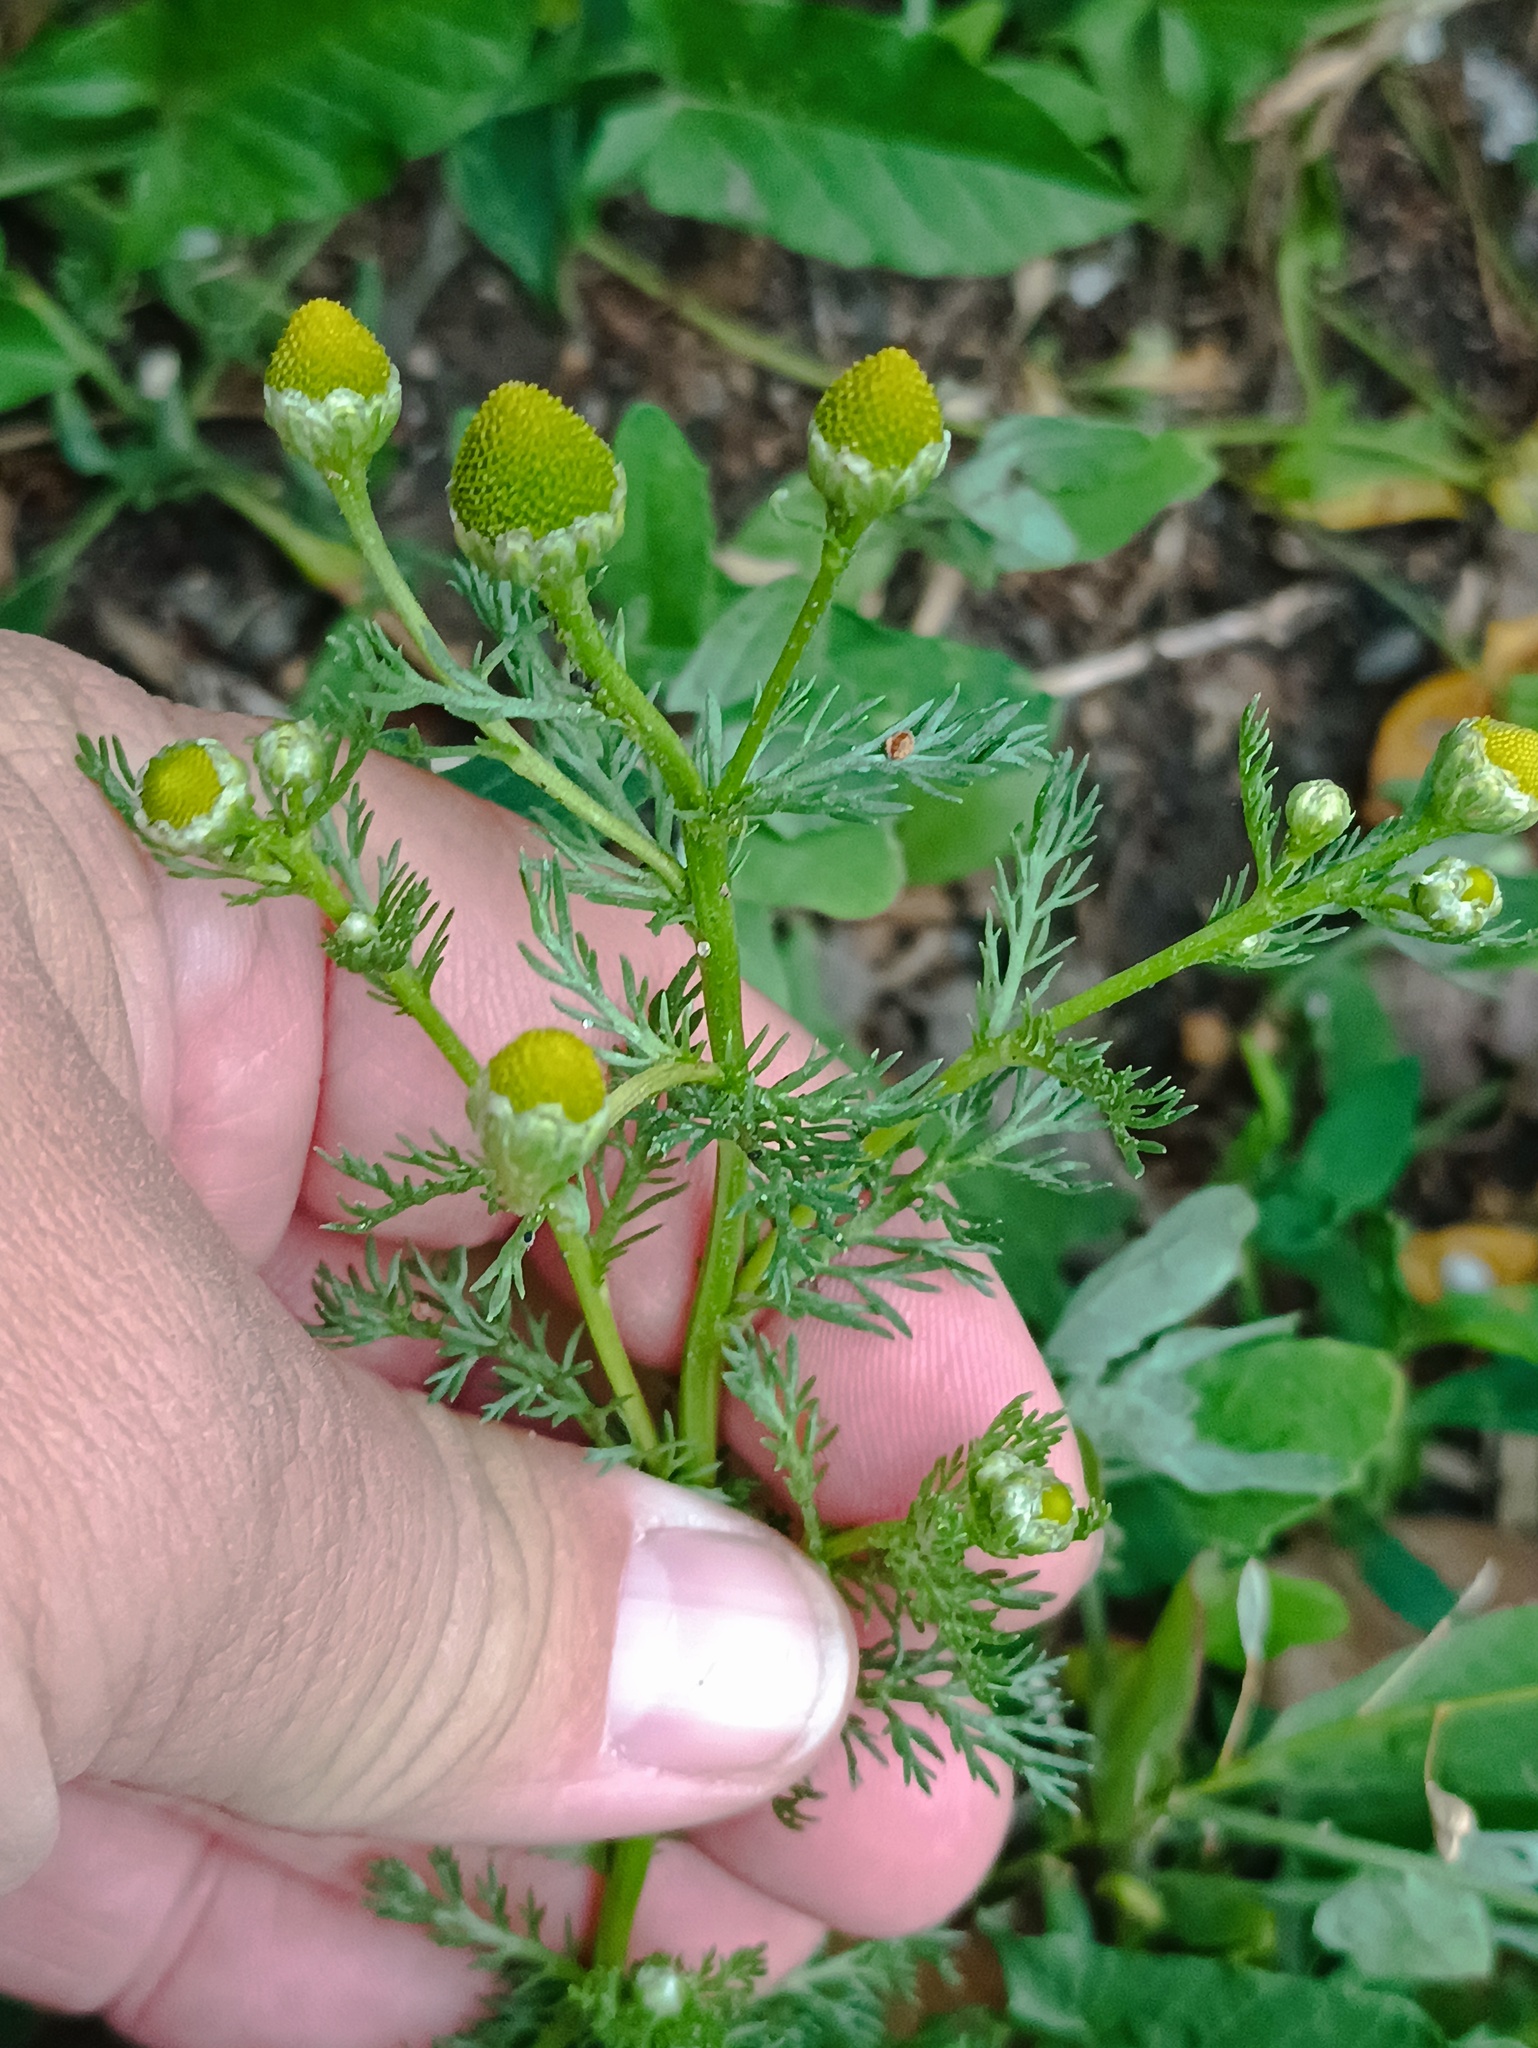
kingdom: Plantae
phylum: Tracheophyta
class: Magnoliopsida
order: Asterales
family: Asteraceae
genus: Matricaria
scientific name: Matricaria discoidea
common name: Disc mayweed
